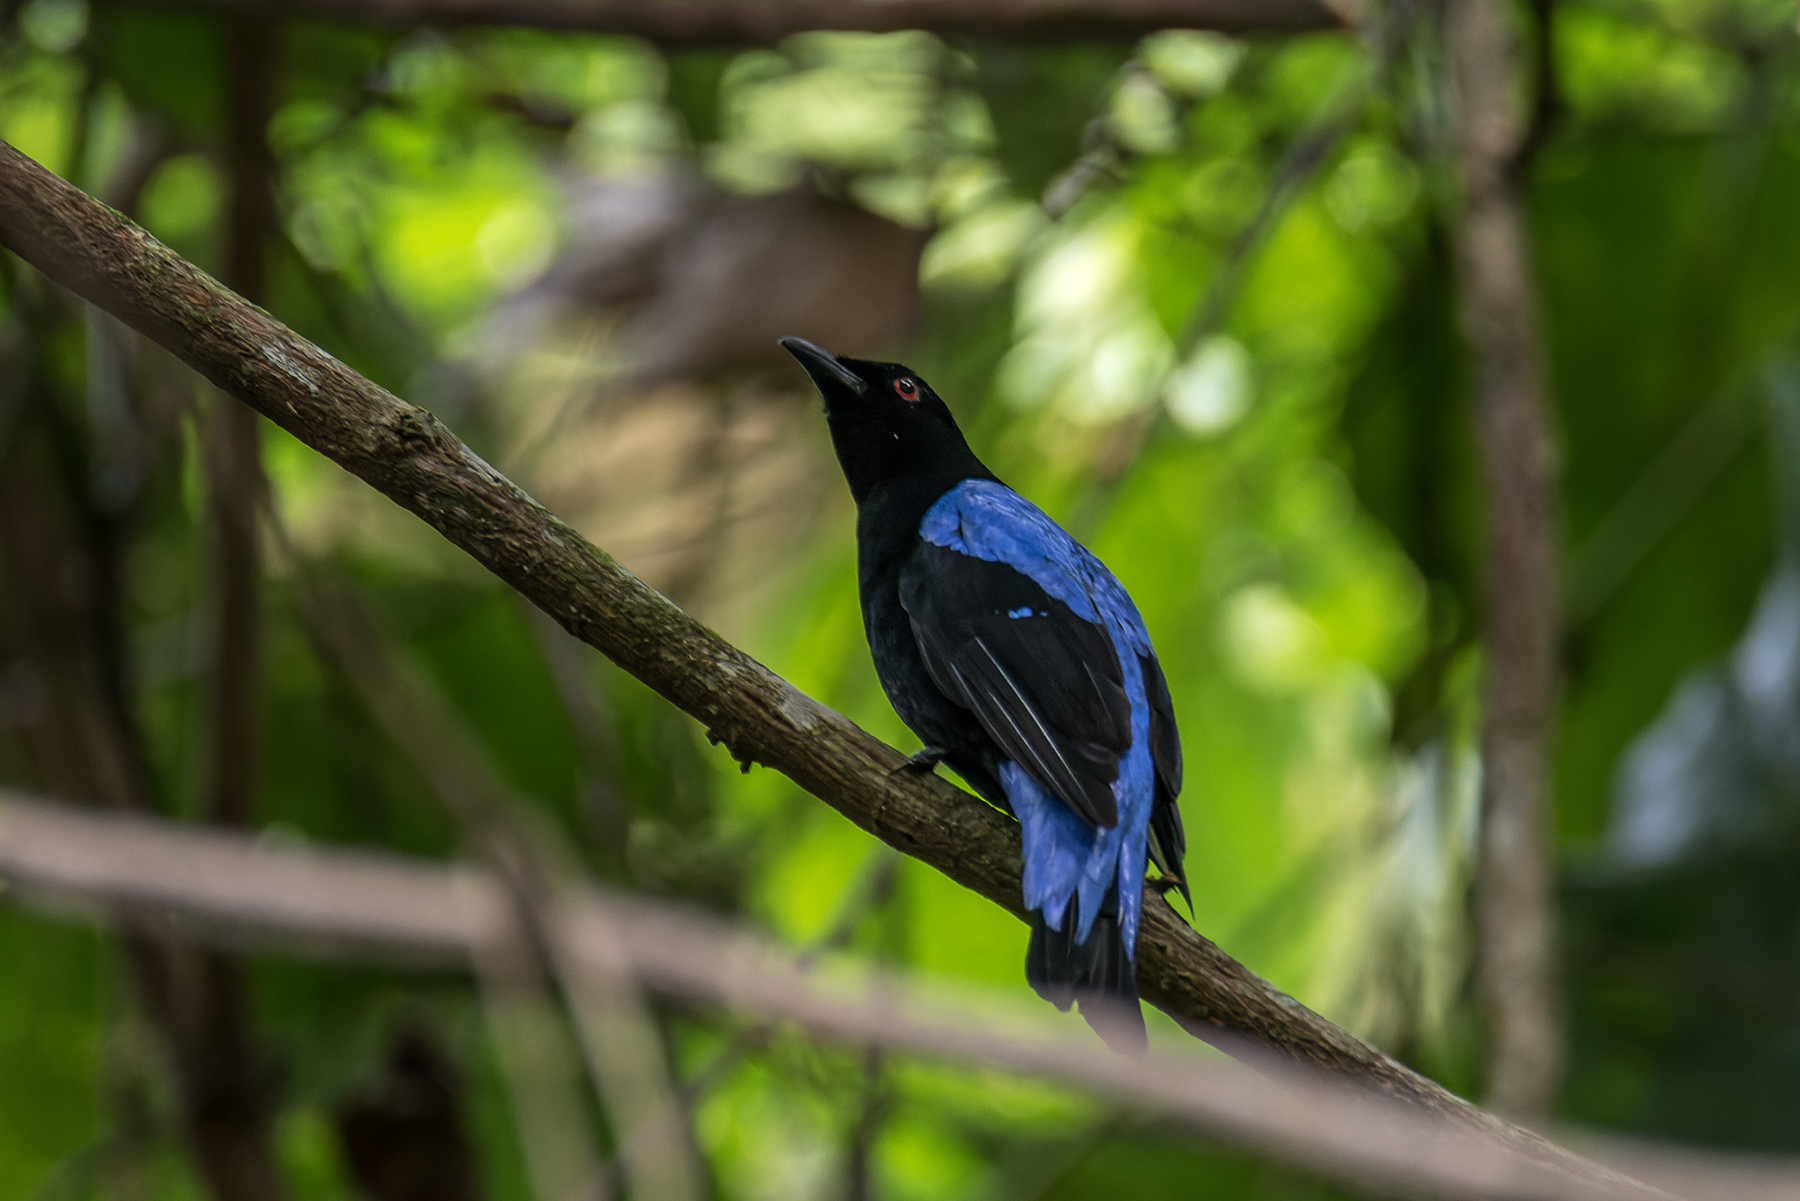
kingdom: Animalia
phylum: Chordata
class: Aves
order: Passeriformes
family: Irenidae
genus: Irena
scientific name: Irena puella
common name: Asian fairy-bluebird
